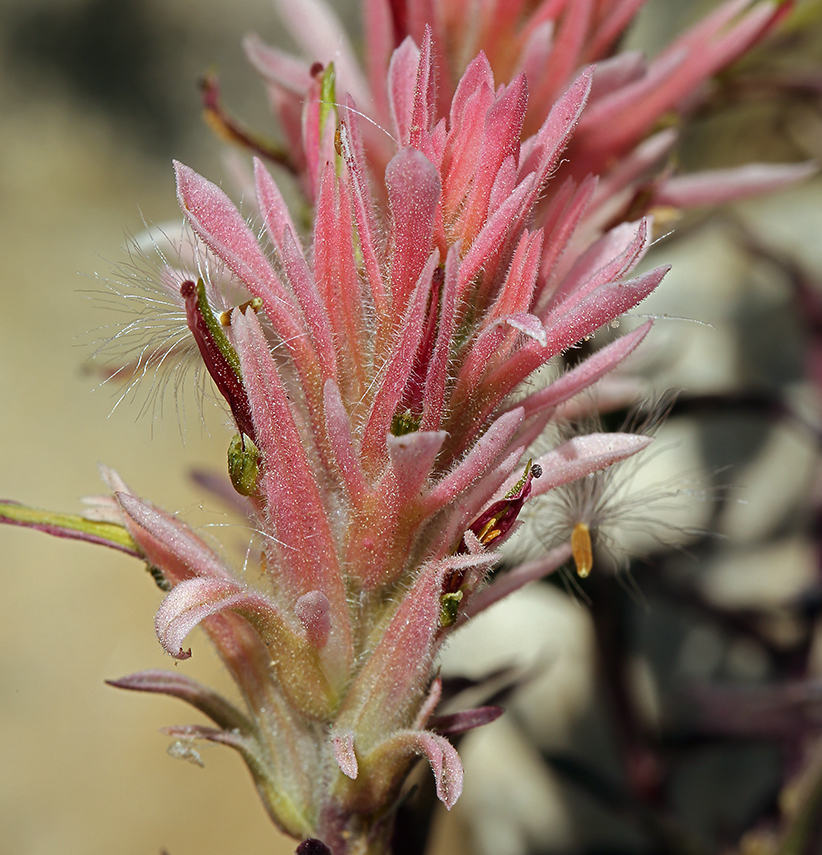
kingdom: Plantae
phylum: Tracheophyta
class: Magnoliopsida
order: Lamiales
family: Orobanchaceae
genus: Castilleja
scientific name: Castilleja linariifolia
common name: Wyoming paintbrush
